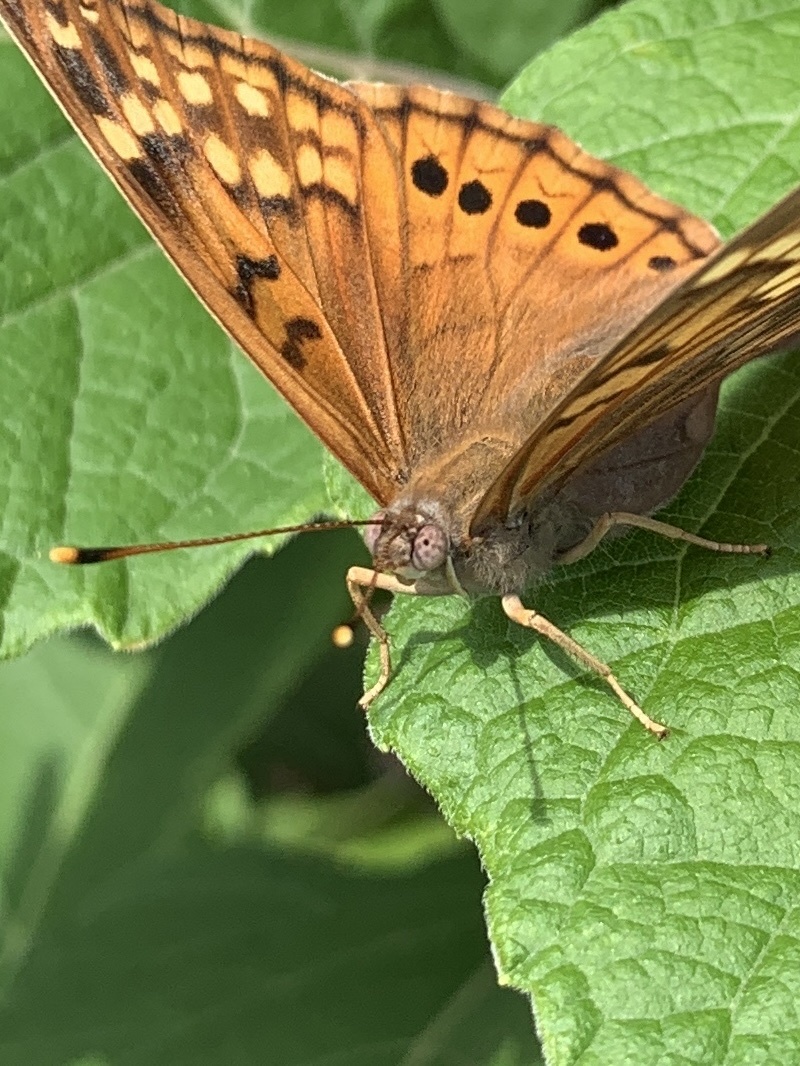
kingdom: Animalia
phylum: Arthropoda
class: Insecta
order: Lepidoptera
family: Nymphalidae
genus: Asterocampa
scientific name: Asterocampa clyton
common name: Tawny emperor
